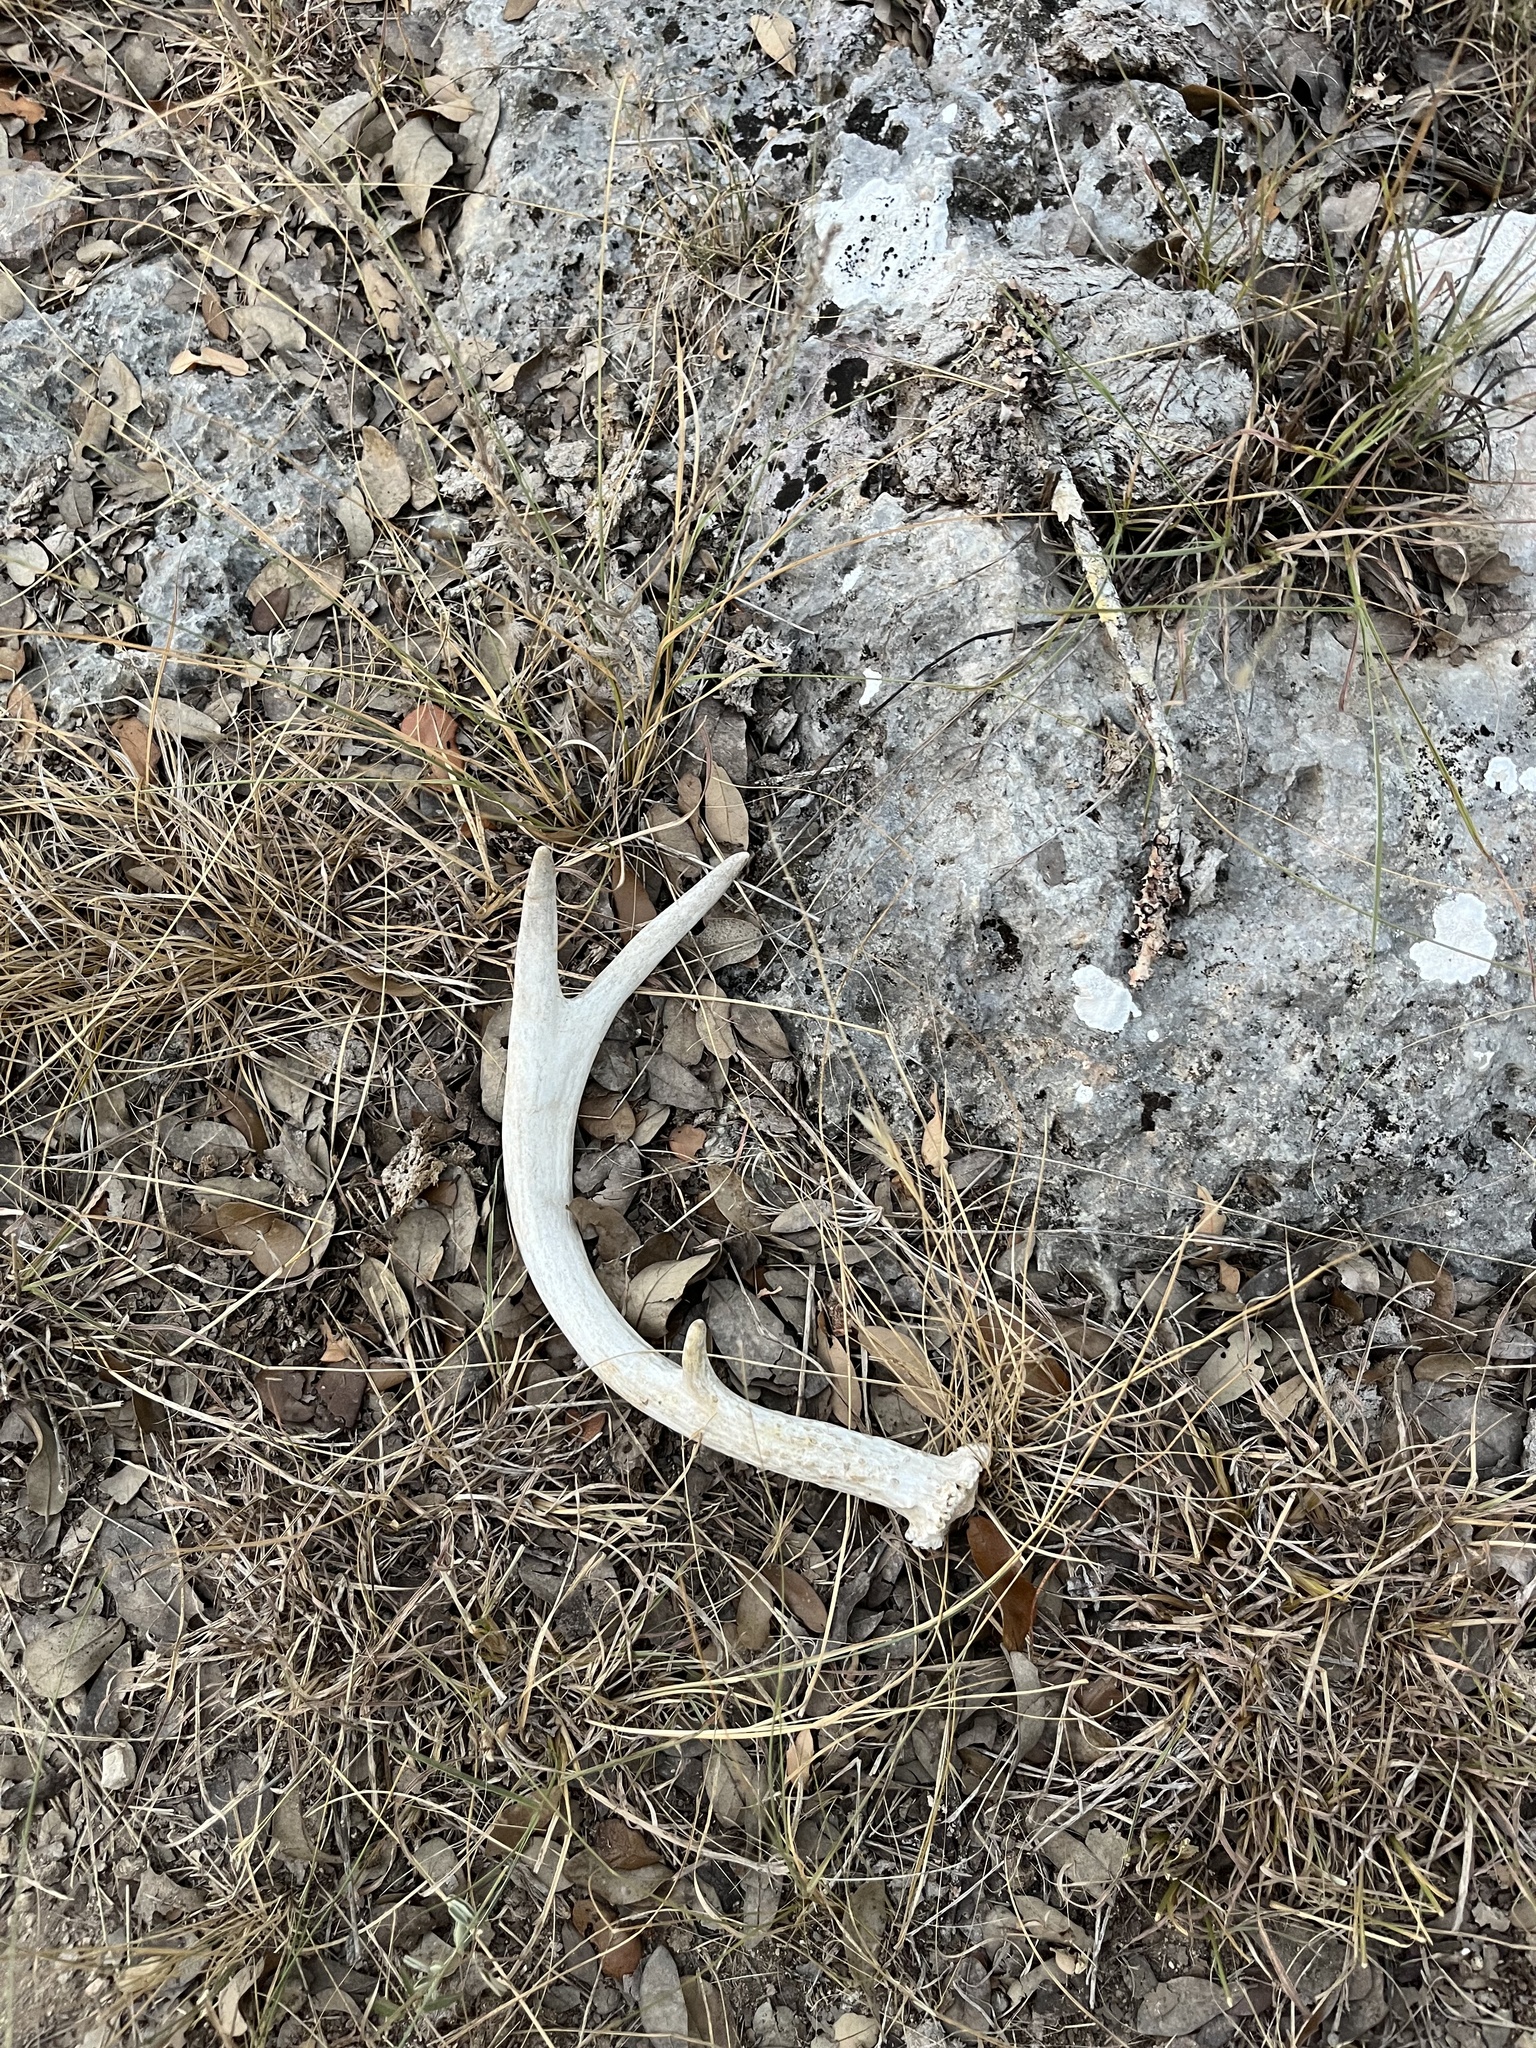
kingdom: Animalia
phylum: Chordata
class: Mammalia
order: Artiodactyla
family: Cervidae
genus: Odocoileus
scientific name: Odocoileus virginianus
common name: White-tailed deer
